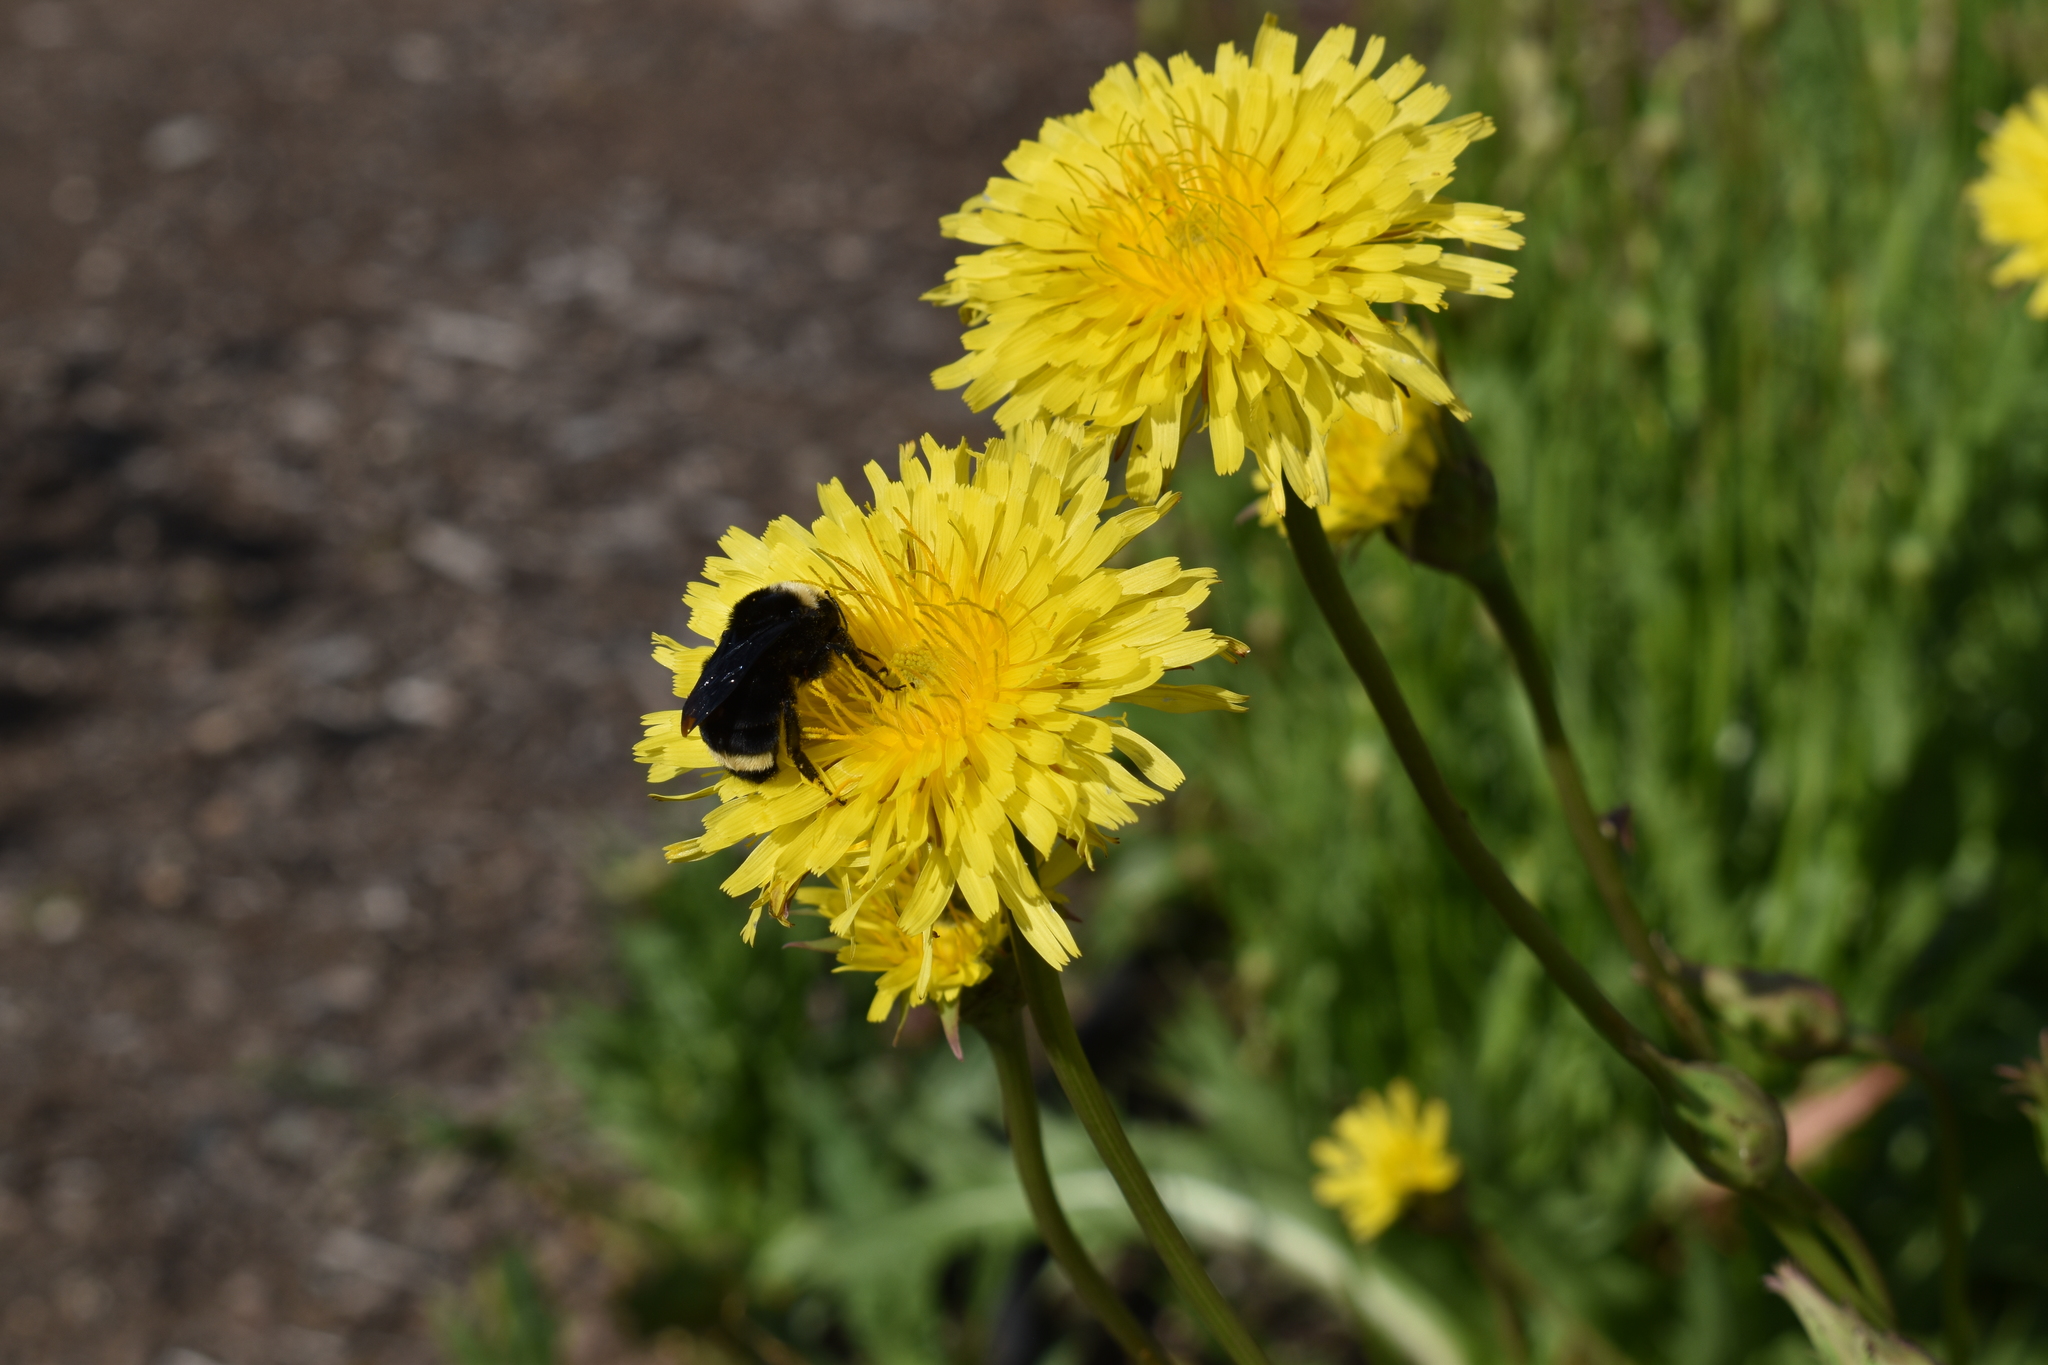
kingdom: Animalia
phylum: Arthropoda
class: Insecta
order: Hymenoptera
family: Apidae
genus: Bombus
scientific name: Bombus vosnesenskii
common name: Vosnesensky bumble bee
